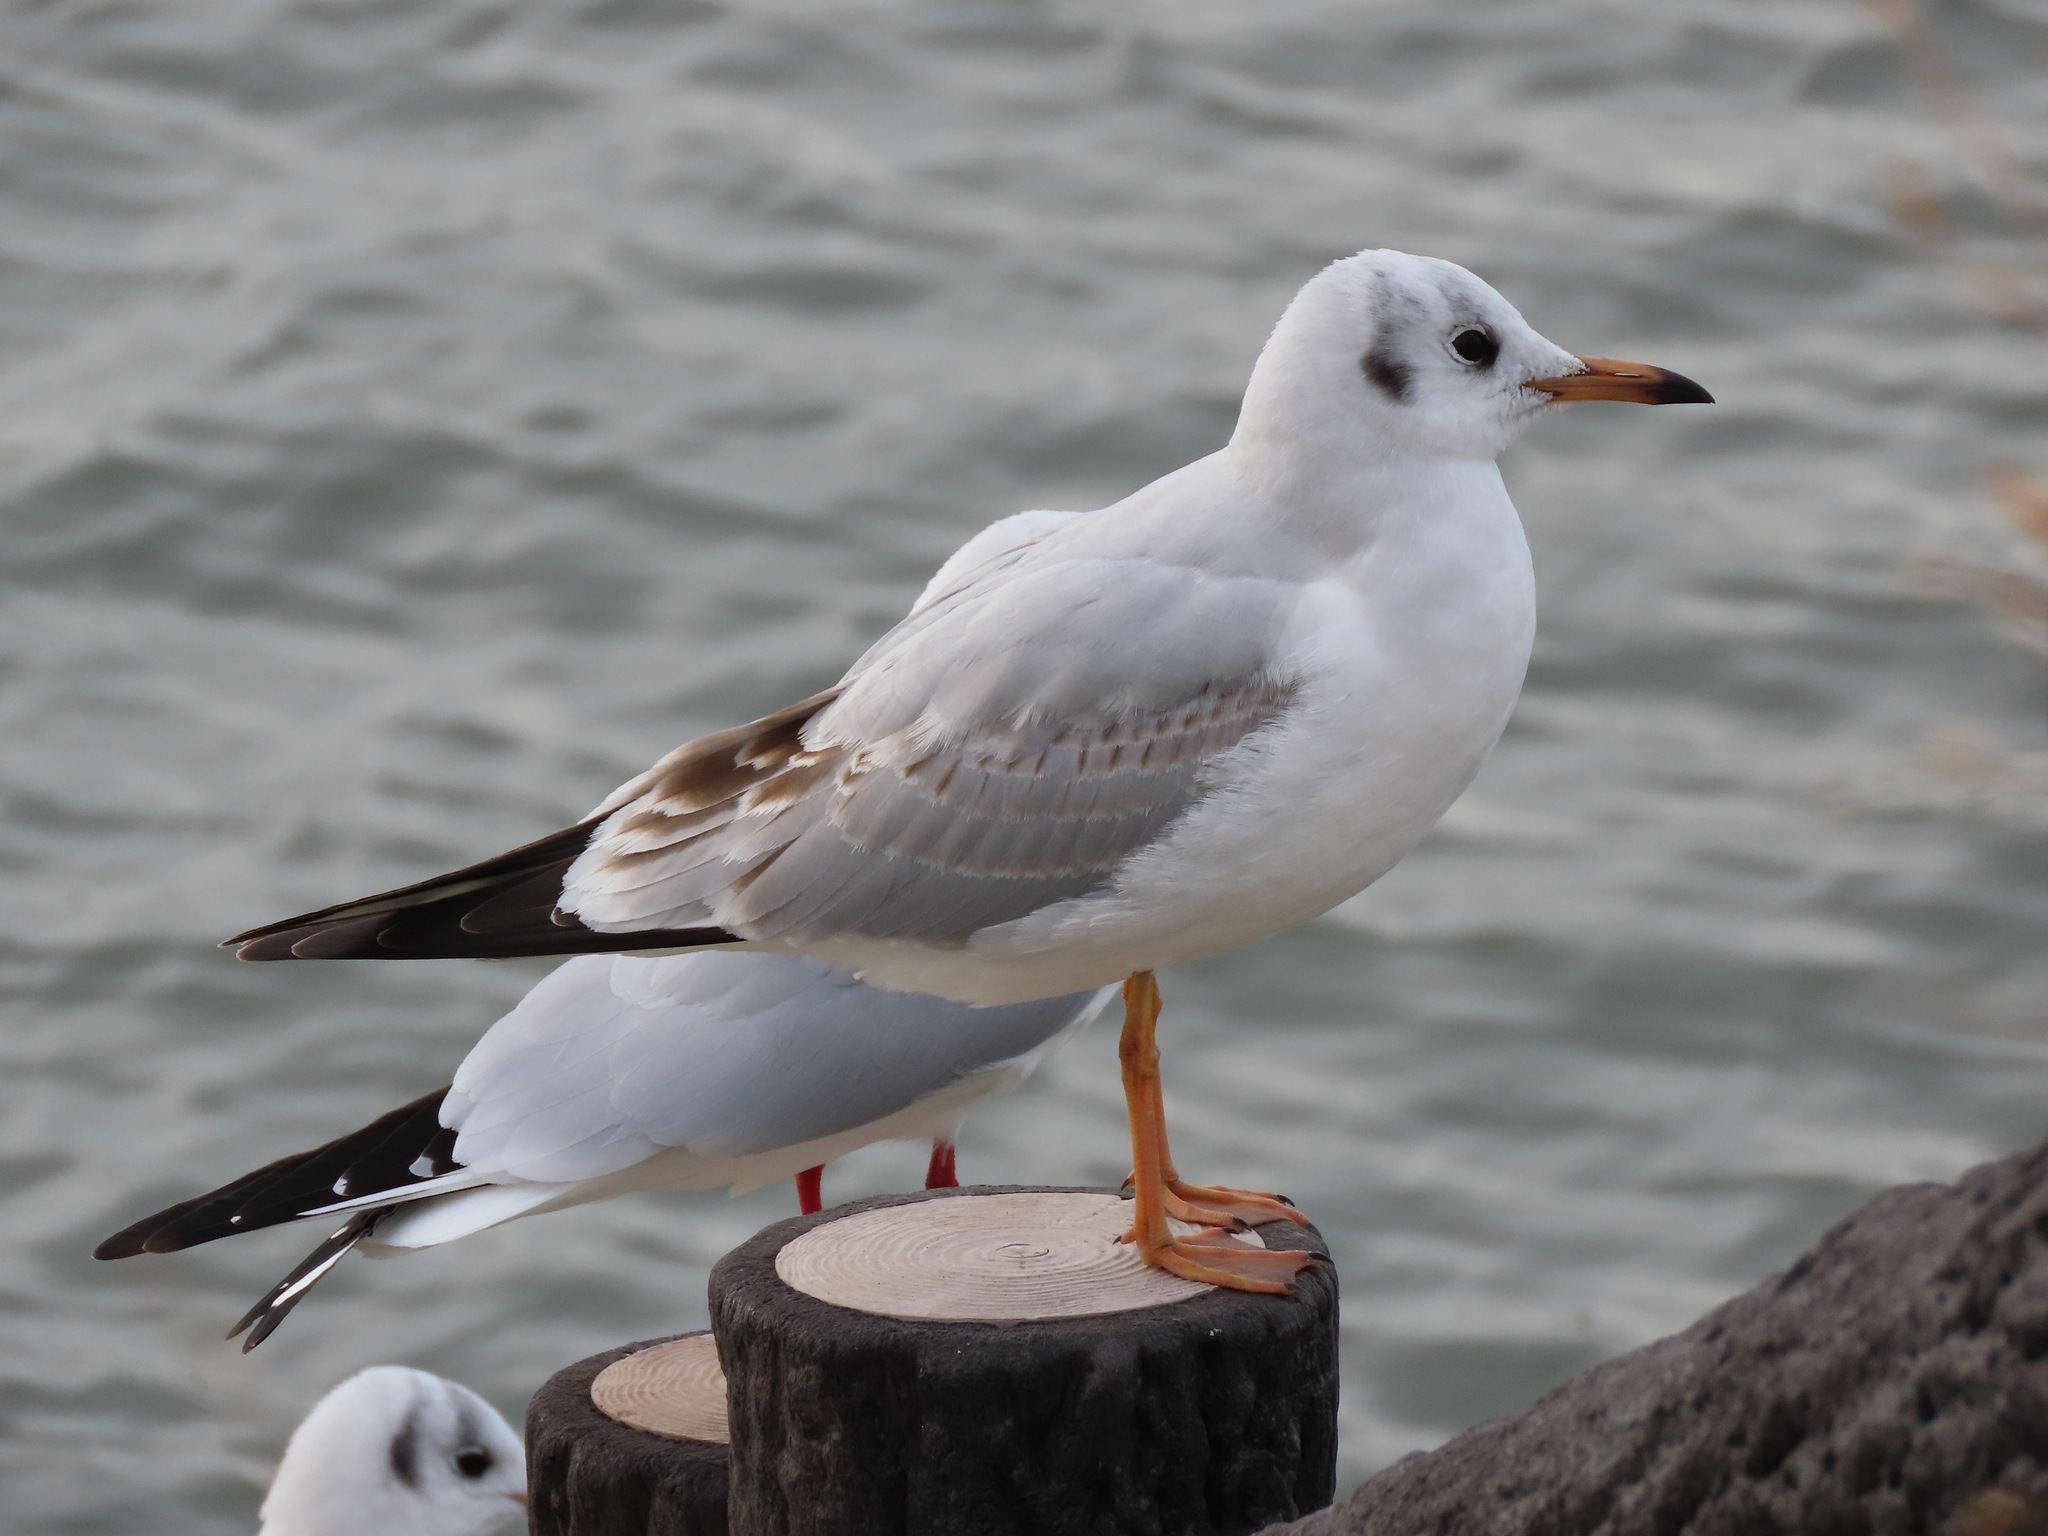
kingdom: Animalia
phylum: Chordata
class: Aves
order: Charadriiformes
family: Laridae
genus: Chroicocephalus
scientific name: Chroicocephalus ridibundus
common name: Black-headed gull
